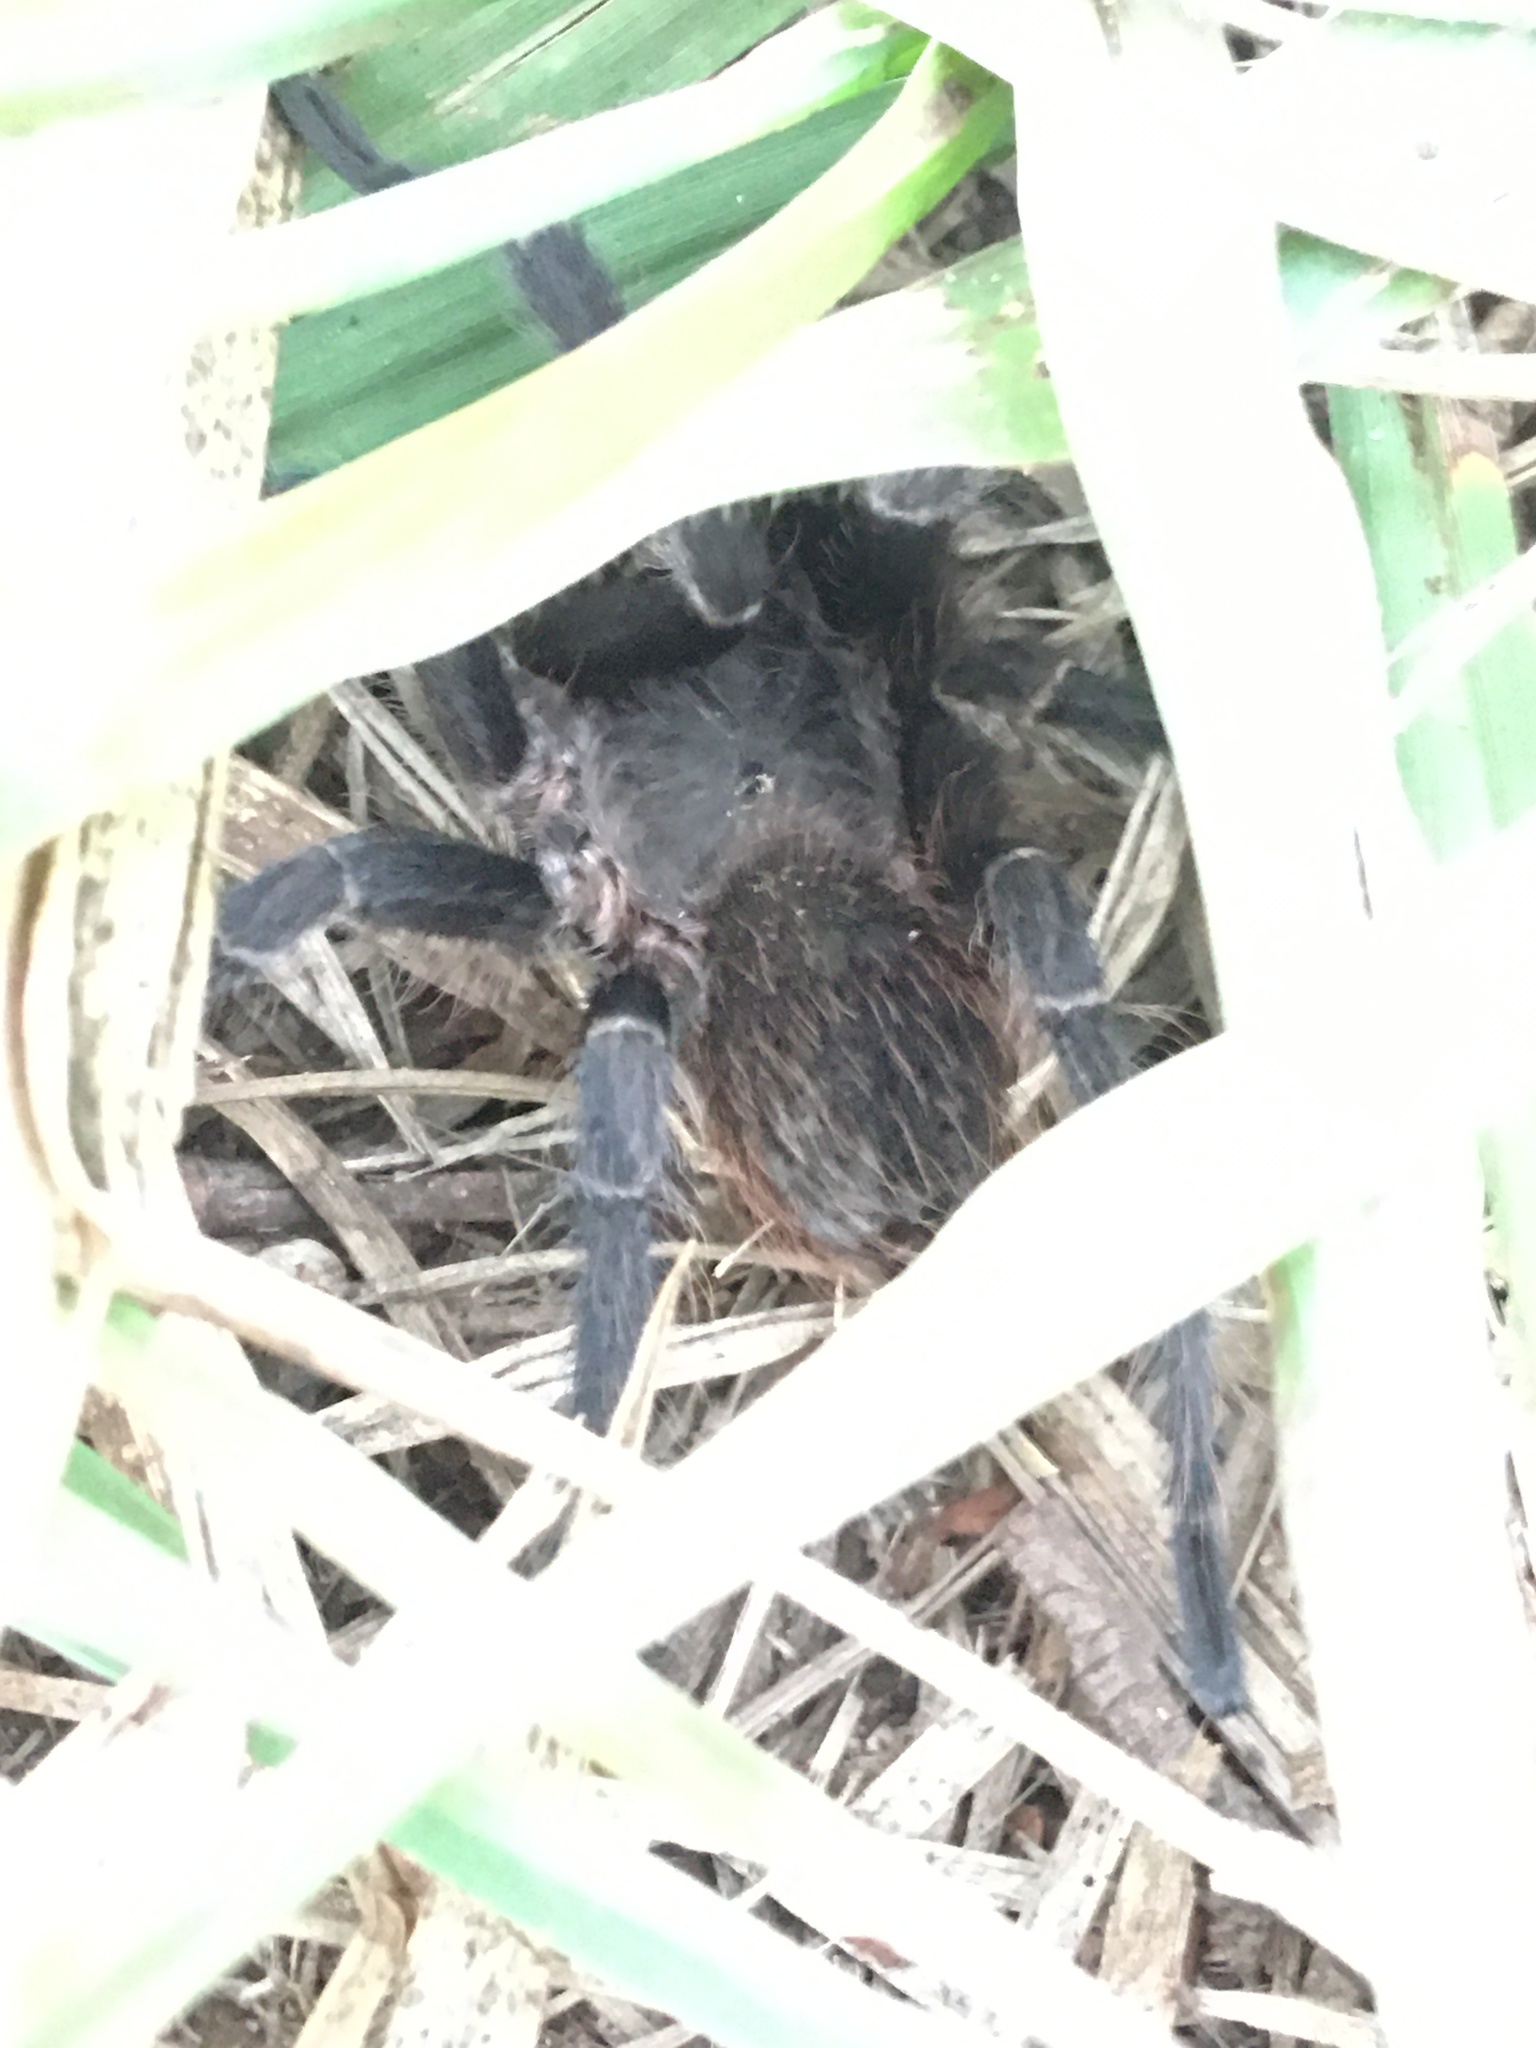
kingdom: Animalia
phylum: Arthropoda
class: Arachnida
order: Araneae
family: Theraphosidae
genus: Pterinopelma
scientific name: Pterinopelma longisternale
